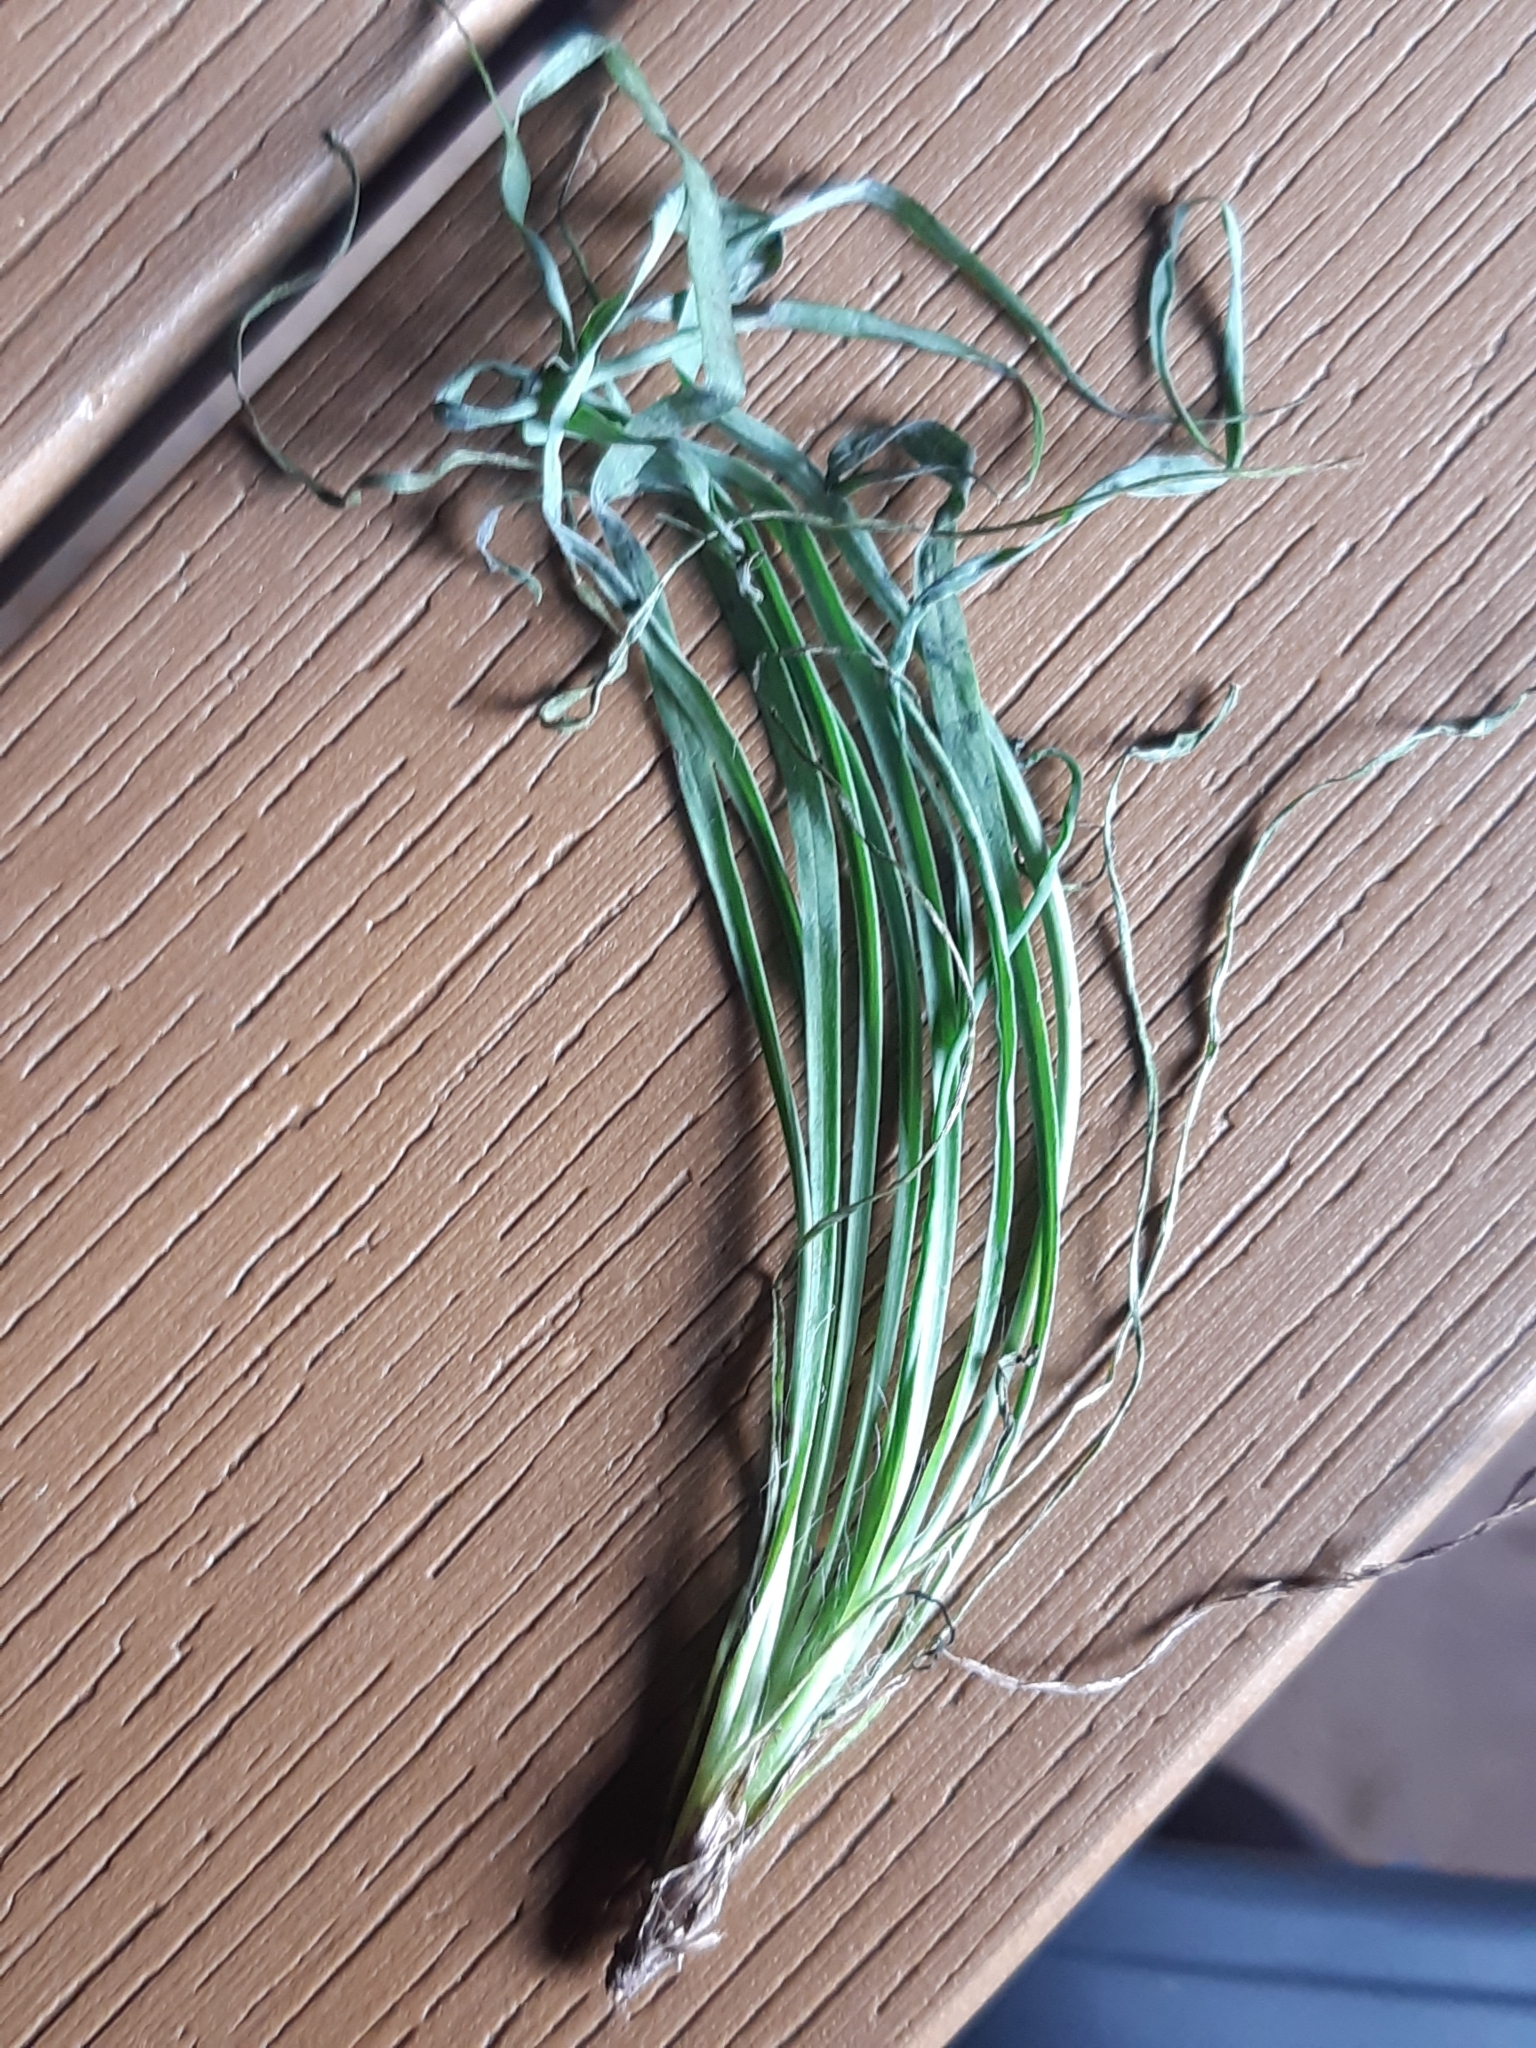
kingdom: Plantae
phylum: Tracheophyta
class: Magnoliopsida
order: Asterales
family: Asteraceae
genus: Hieracium
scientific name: Hieracium porrifolium
